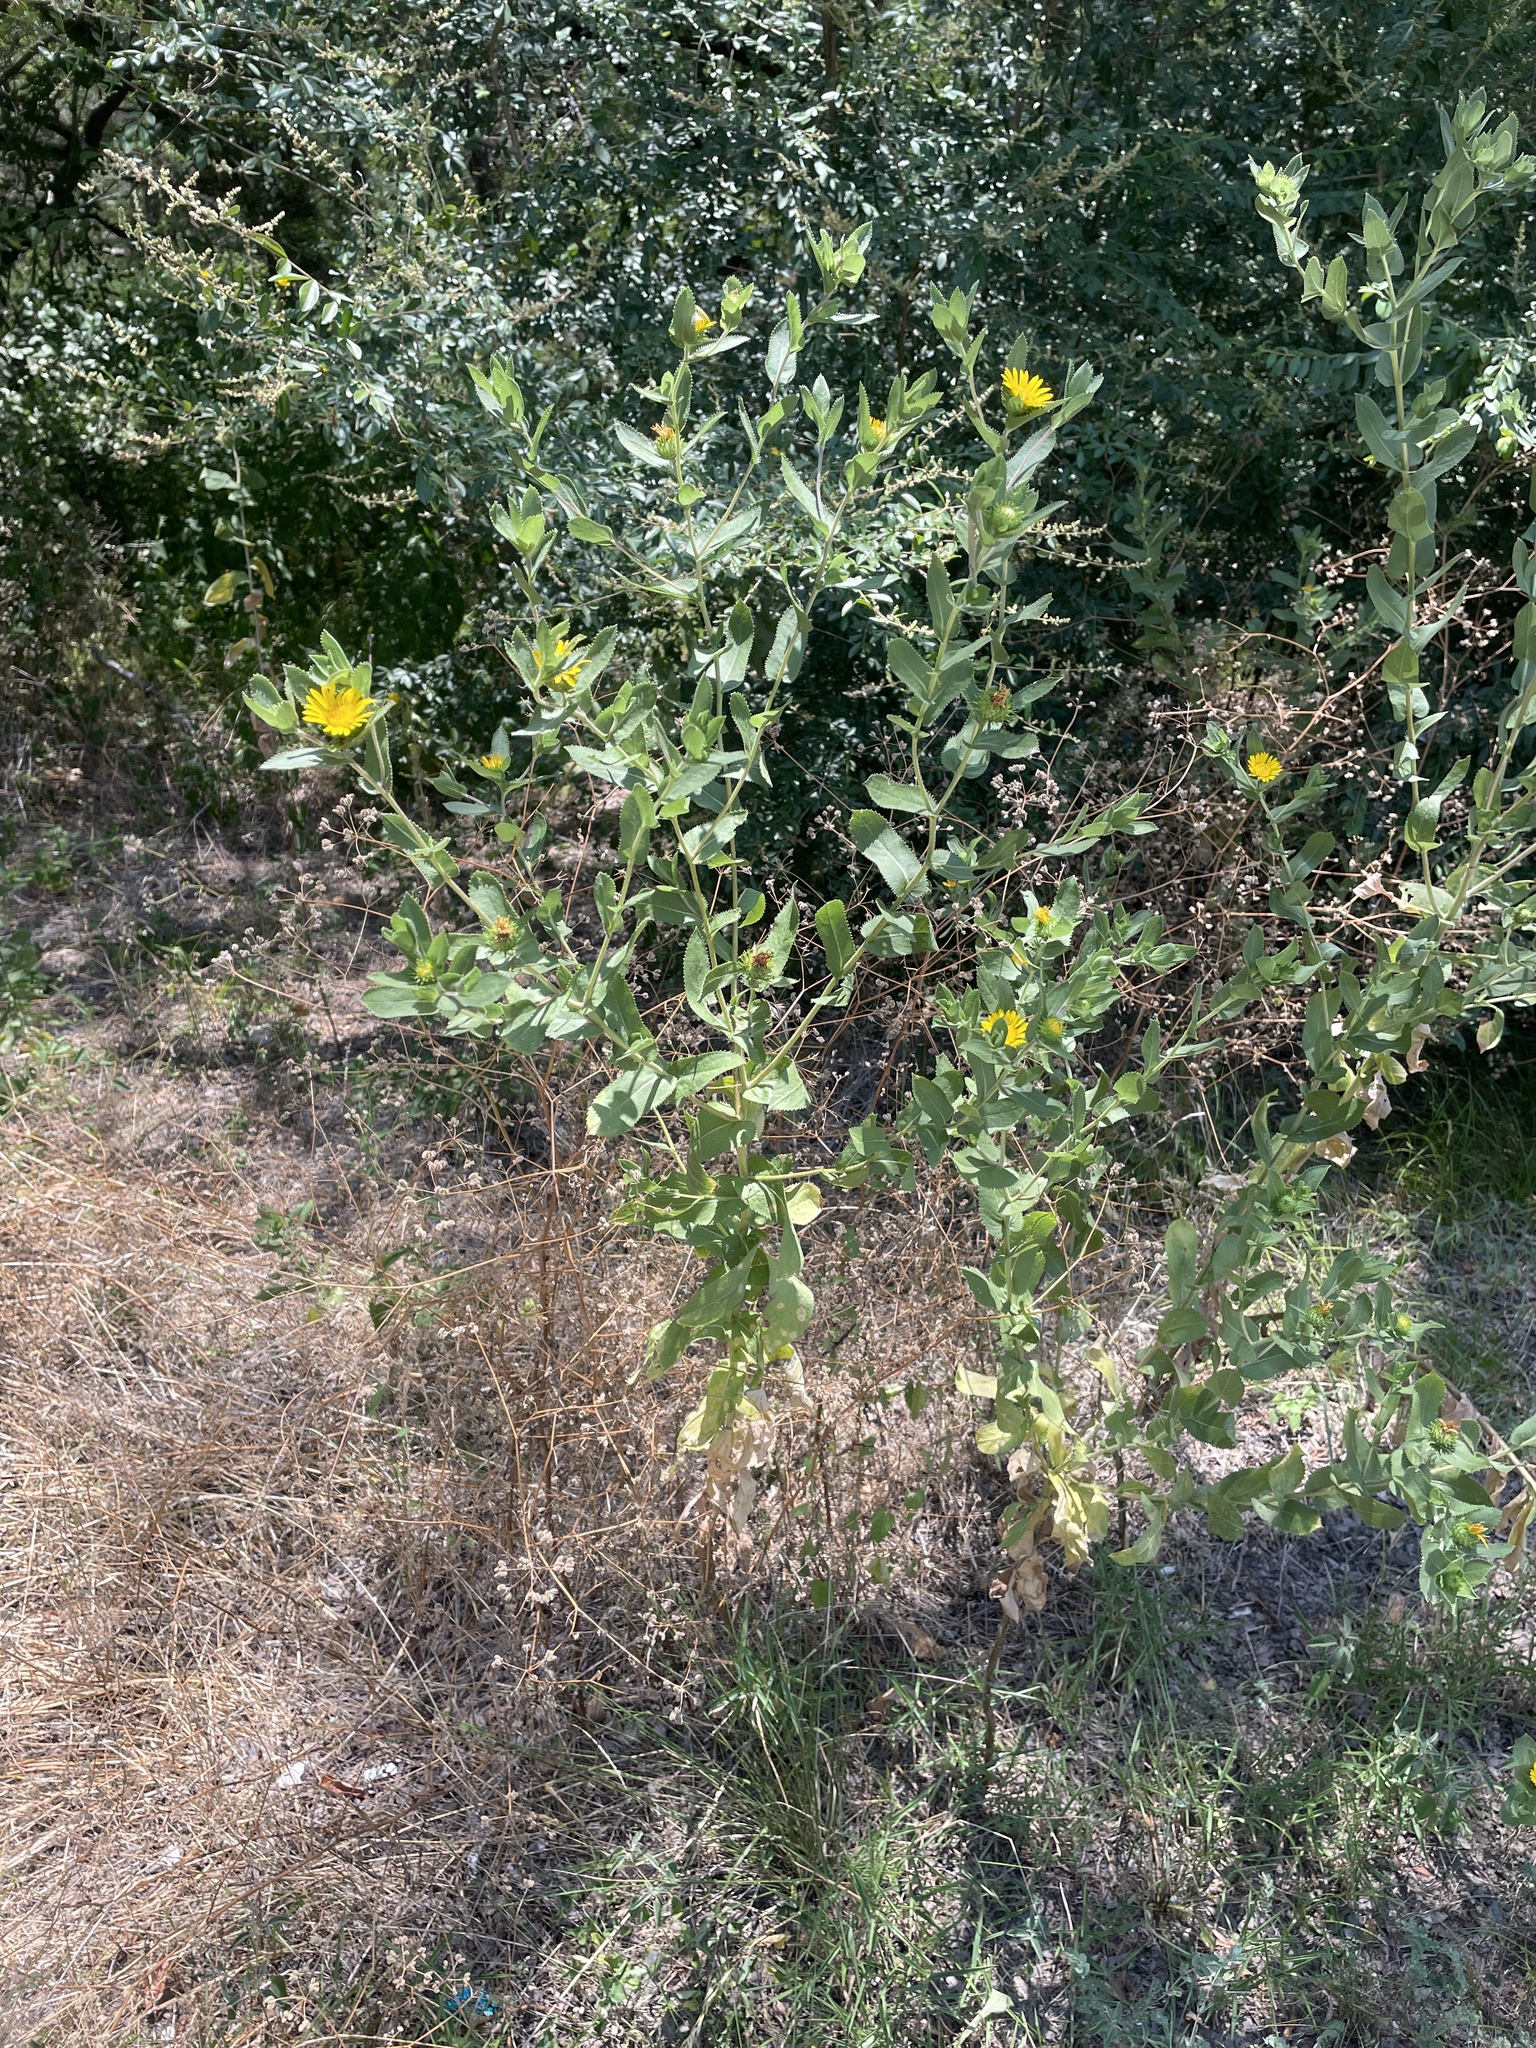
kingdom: Plantae
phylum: Tracheophyta
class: Magnoliopsida
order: Asterales
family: Asteraceae
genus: Grindelia
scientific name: Grindelia adenodonta
